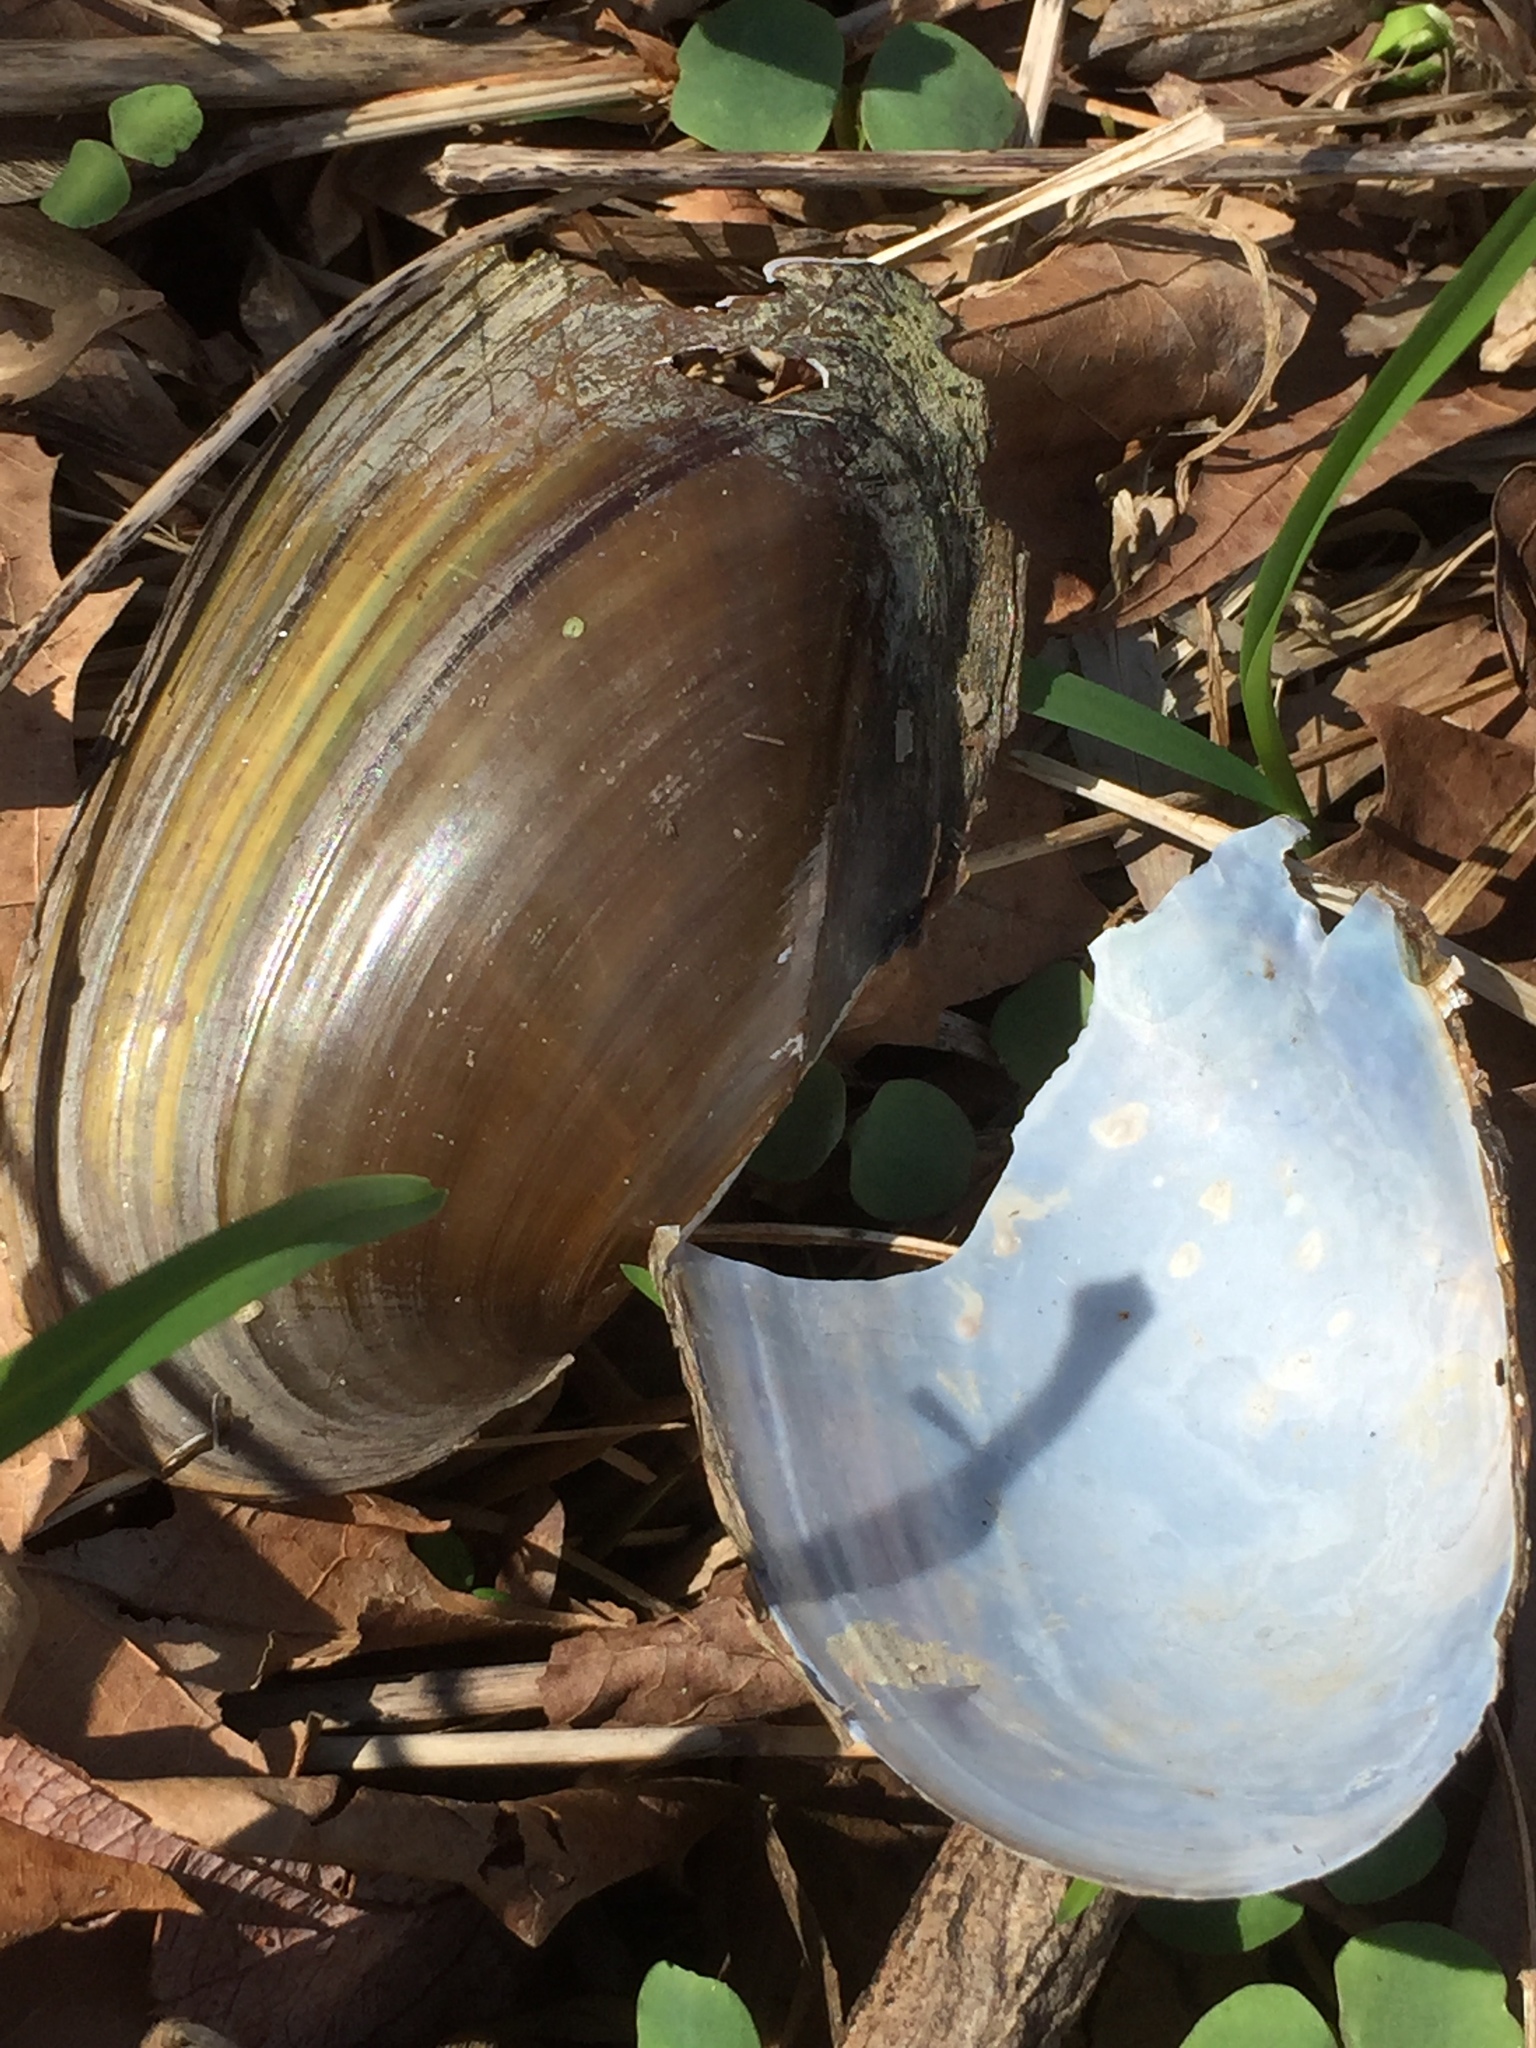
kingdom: Animalia
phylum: Mollusca
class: Bivalvia
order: Unionida
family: Unionidae
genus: Utterbackia
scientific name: Utterbackia imbecillis
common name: Paper pondshell
